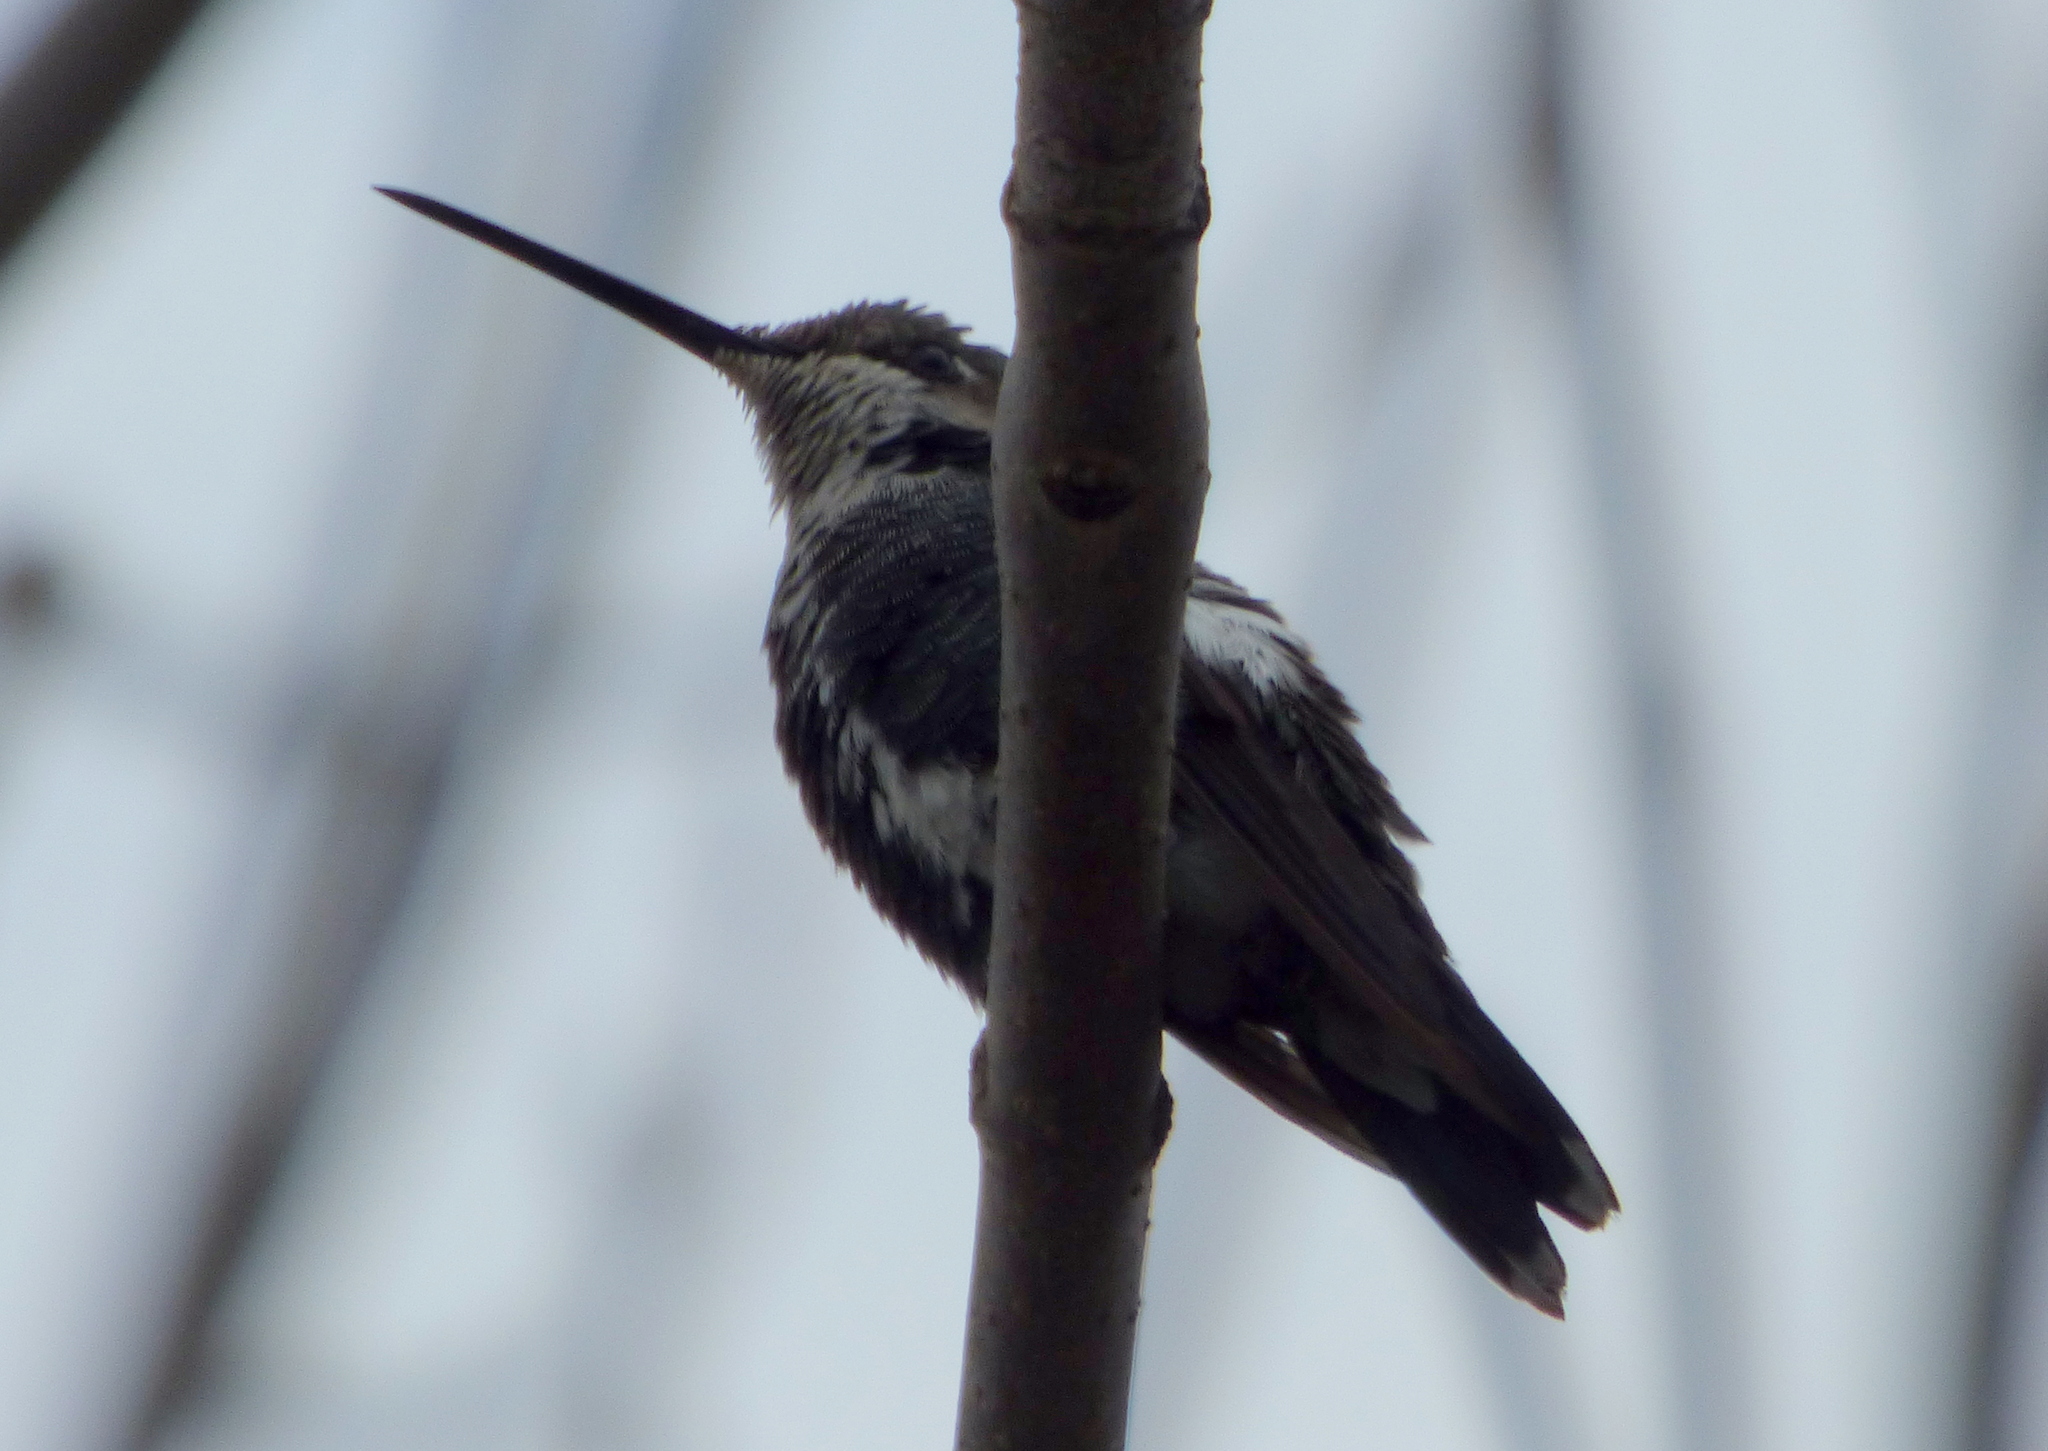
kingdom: Animalia
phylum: Chordata
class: Aves
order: Apodiformes
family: Trochilidae
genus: Heliomaster
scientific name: Heliomaster furcifer
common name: Blue-tufted starthroat
